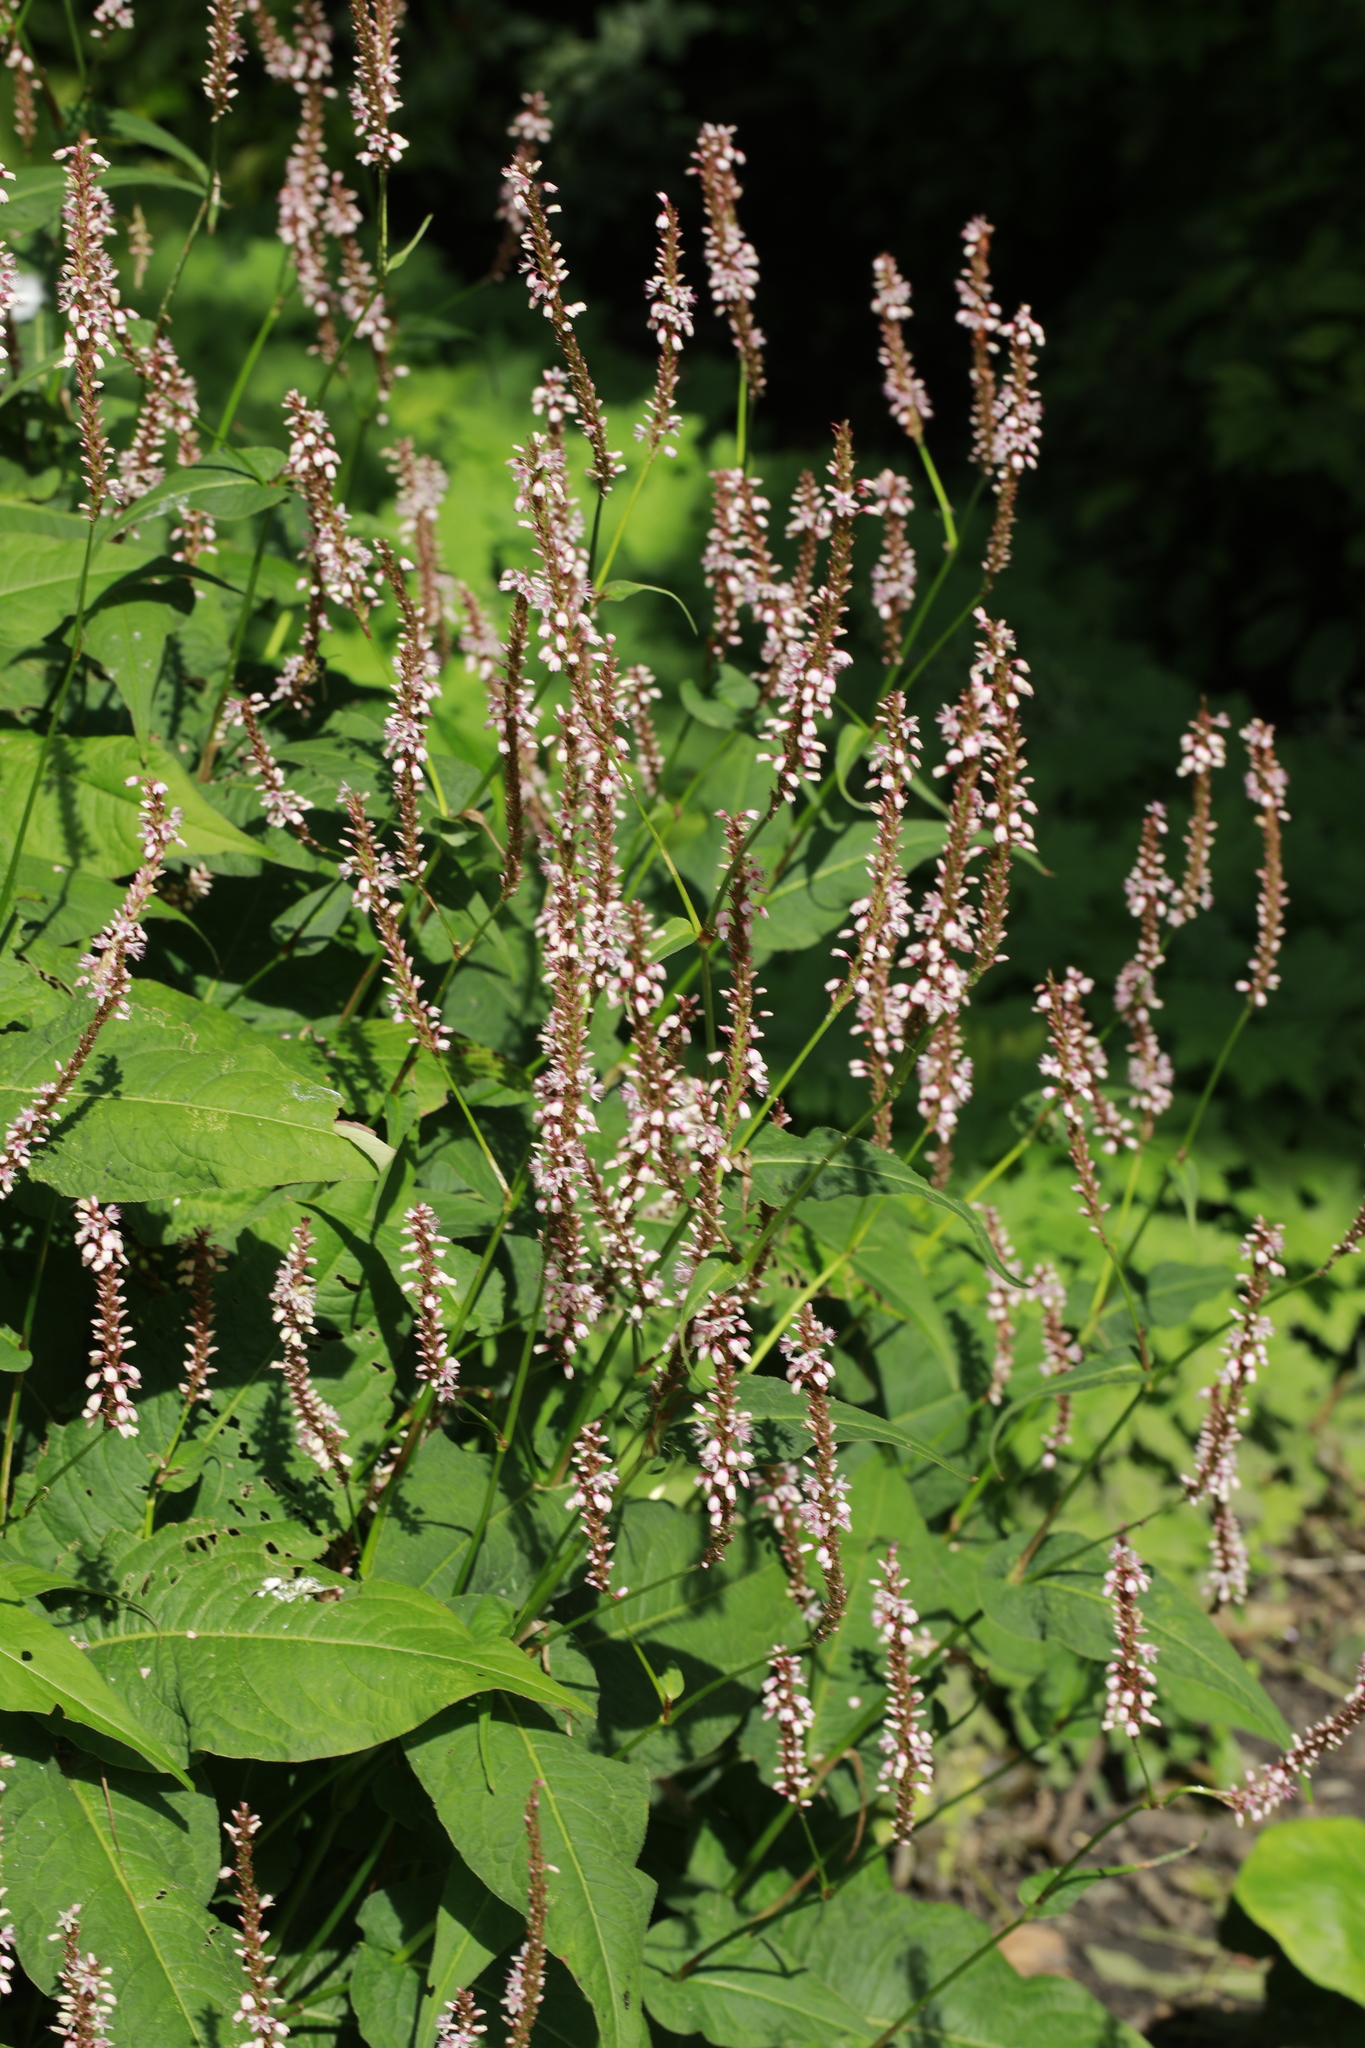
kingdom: Plantae
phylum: Tracheophyta
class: Magnoliopsida
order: Caryophyllales
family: Polygonaceae
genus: Bistorta
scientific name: Bistorta amplexicaulis
